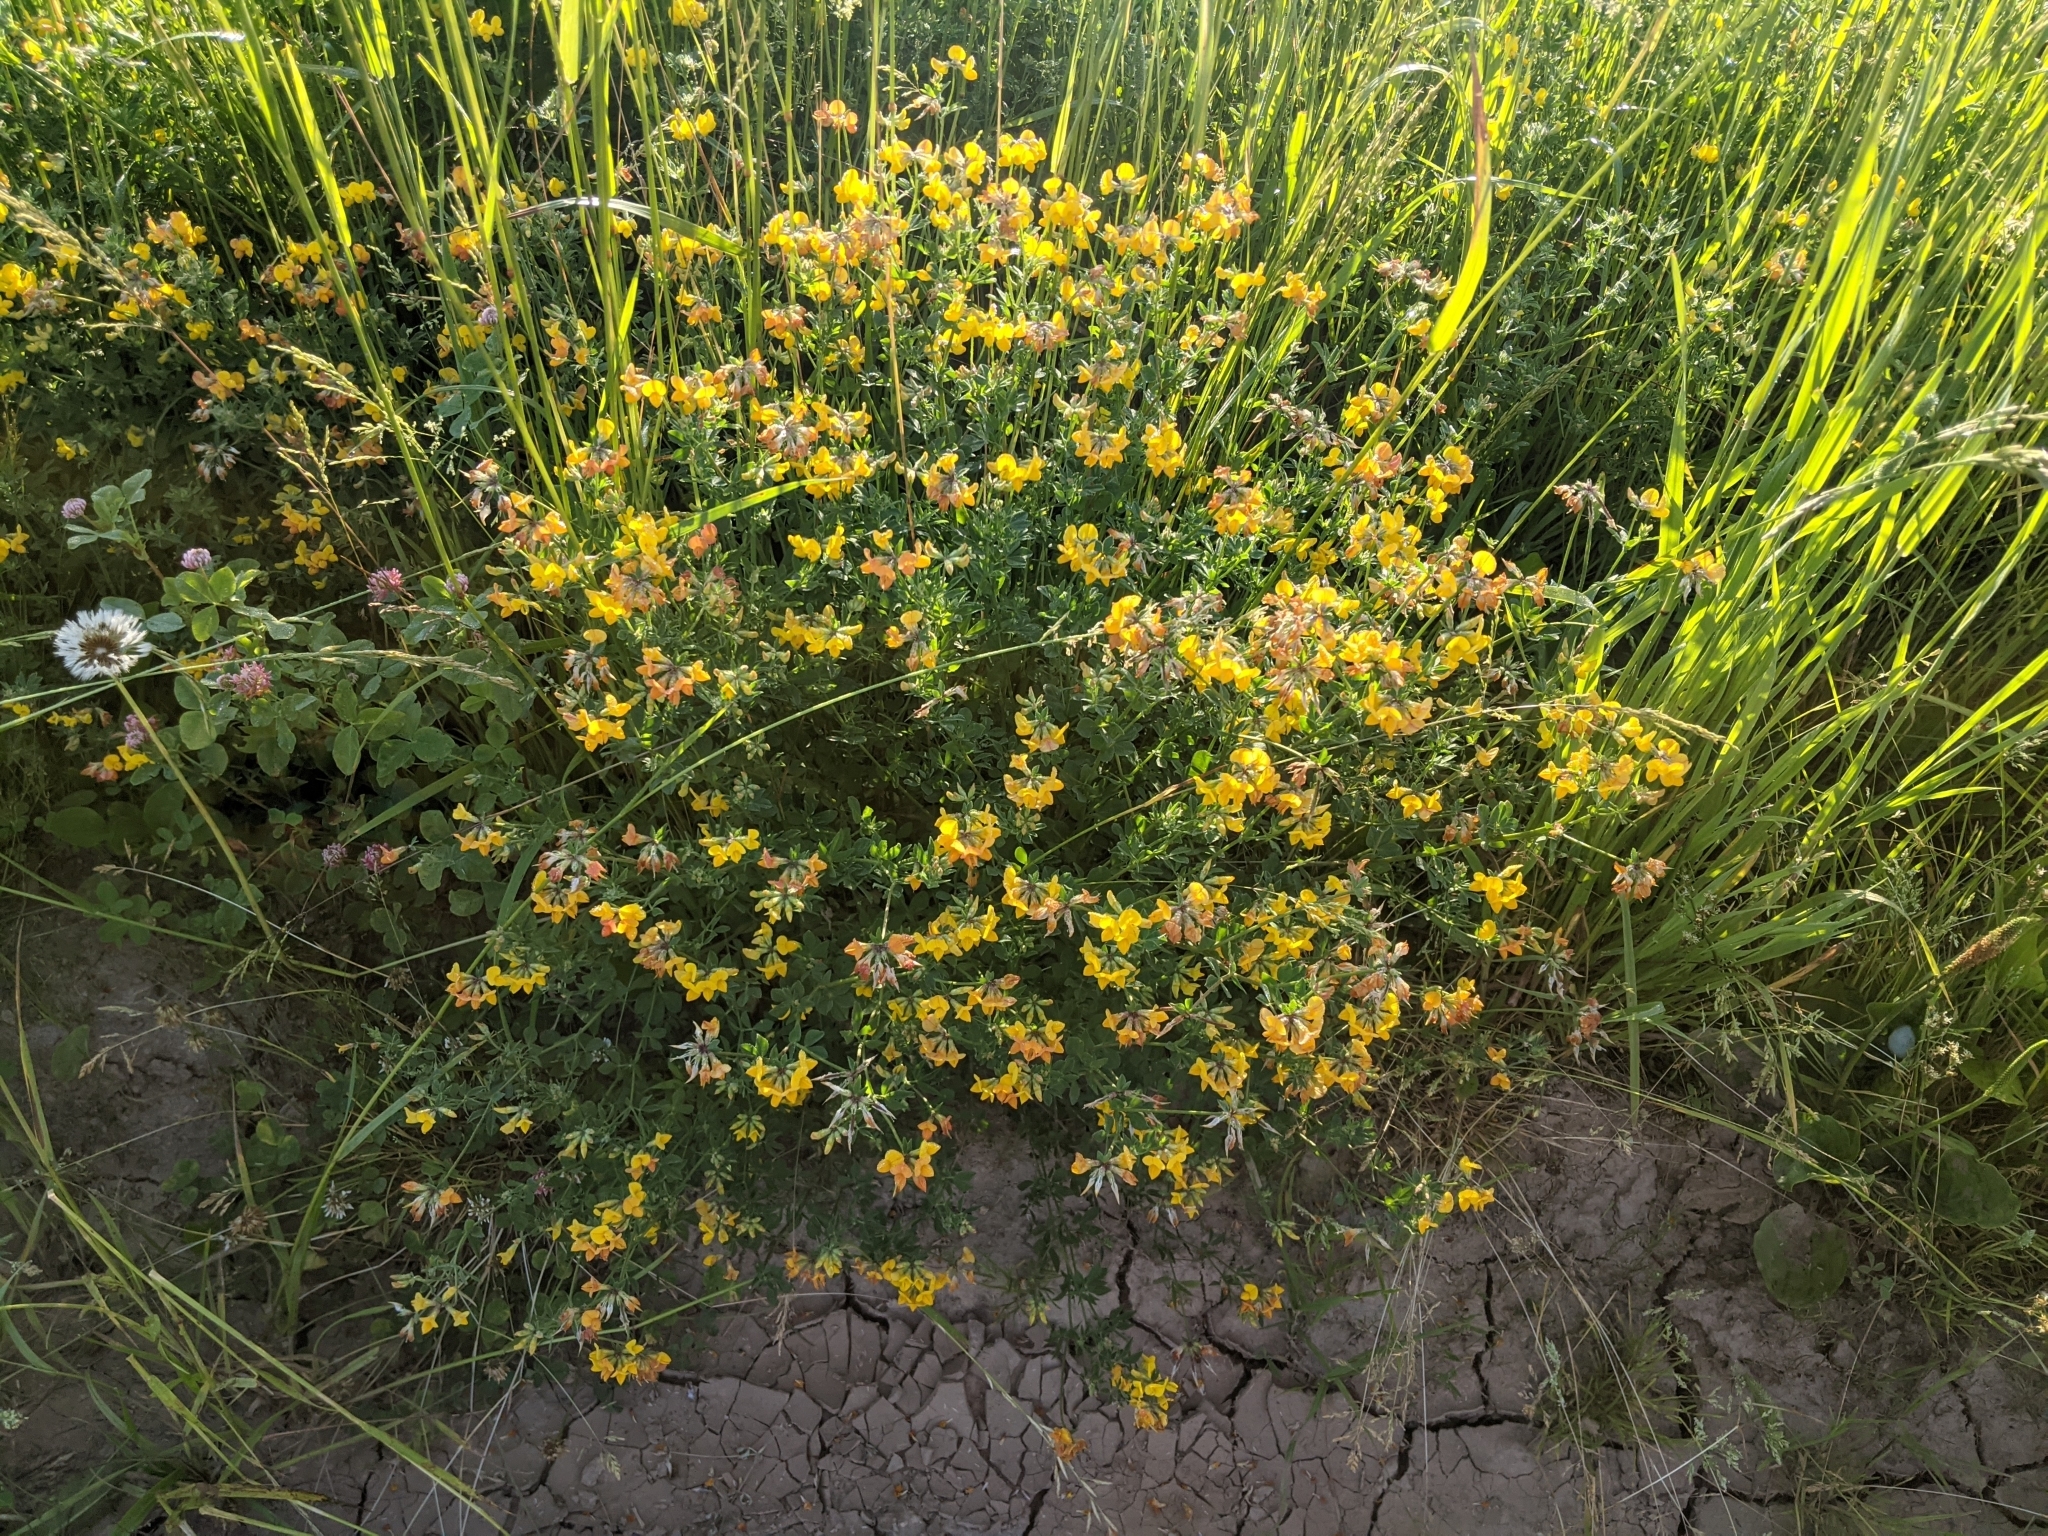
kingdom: Plantae
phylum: Tracheophyta
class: Magnoliopsida
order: Fabales
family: Fabaceae
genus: Lotus
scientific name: Lotus corniculatus
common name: Common bird's-foot-trefoil
